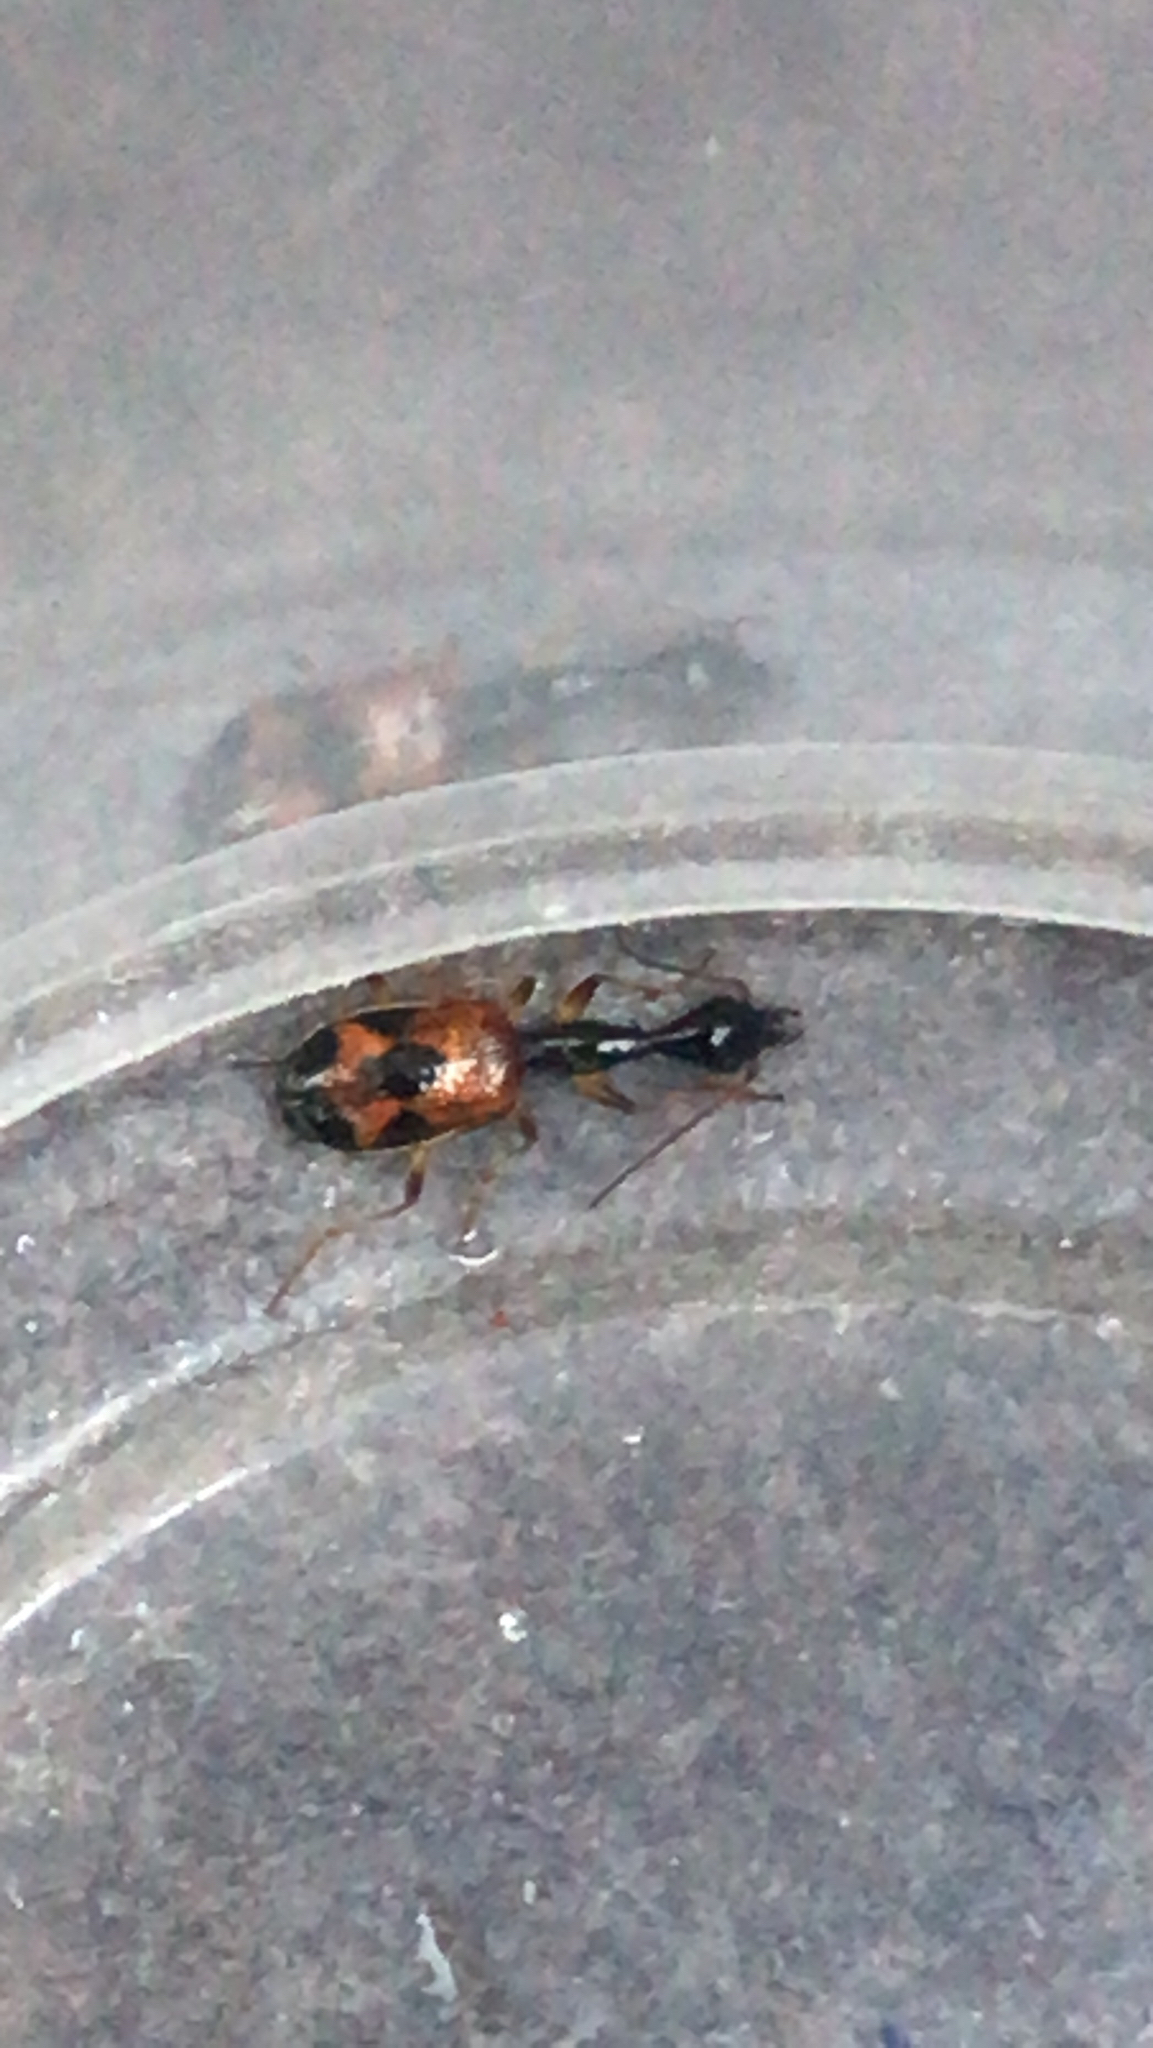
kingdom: Animalia
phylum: Arthropoda
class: Insecta
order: Coleoptera
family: Carabidae
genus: Colliuris
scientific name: Colliuris pensylvanica
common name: Long-necked ground beetle
